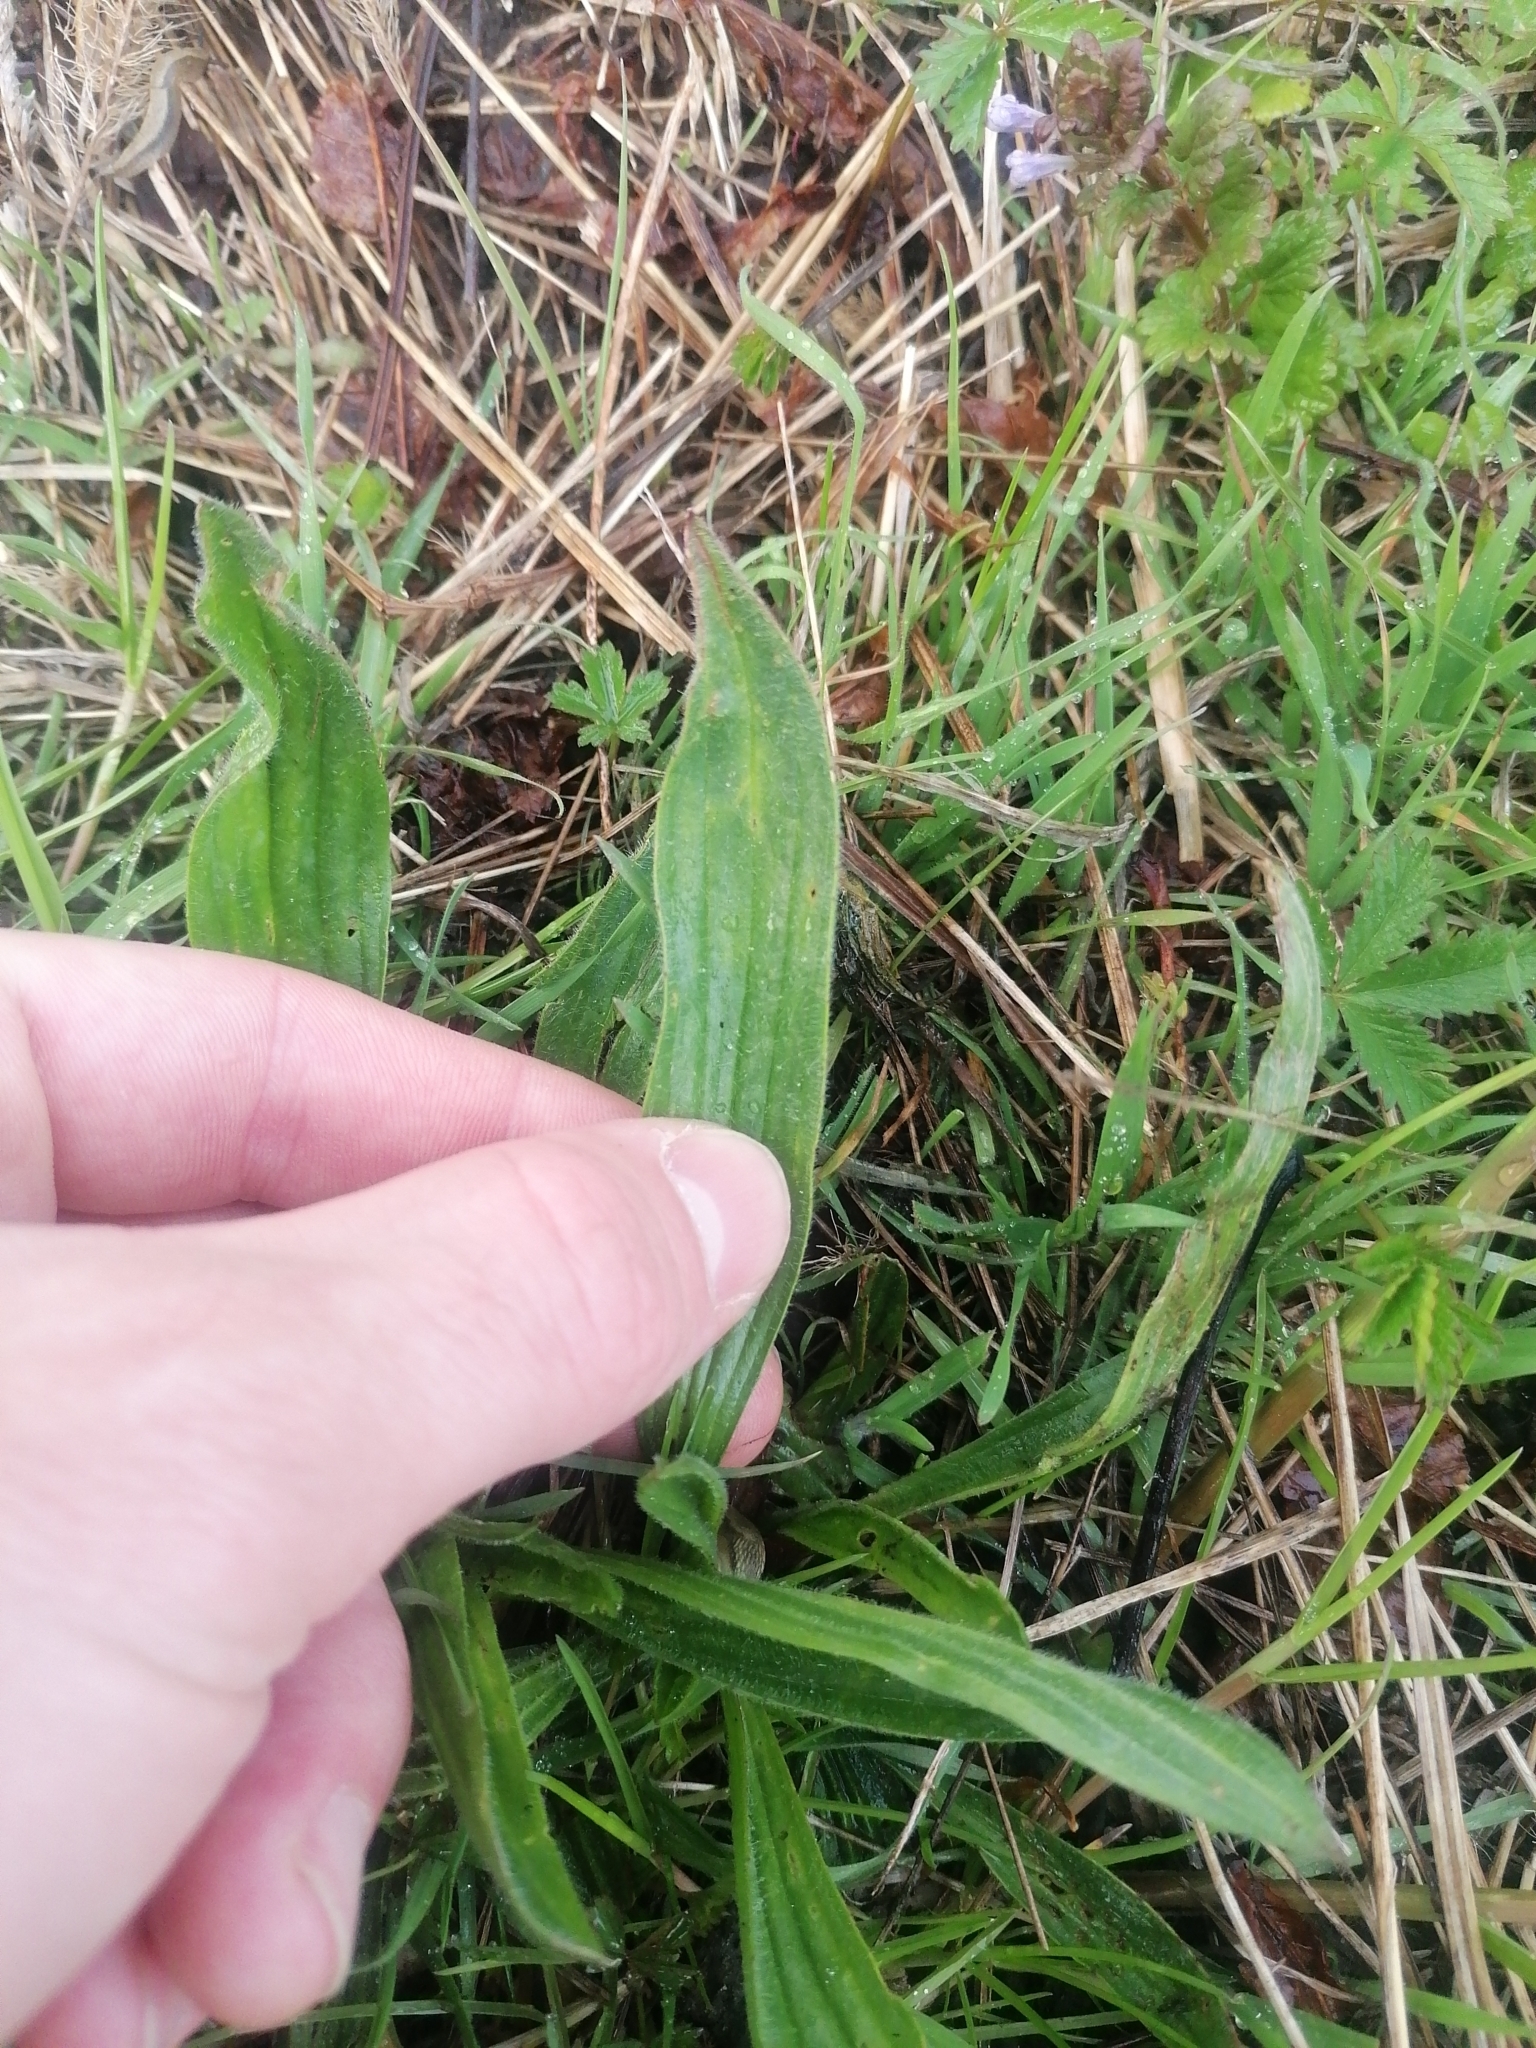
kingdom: Plantae
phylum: Tracheophyta
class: Magnoliopsida
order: Lamiales
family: Plantaginaceae
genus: Plantago
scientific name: Plantago lanceolata
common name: Ribwort plantain
